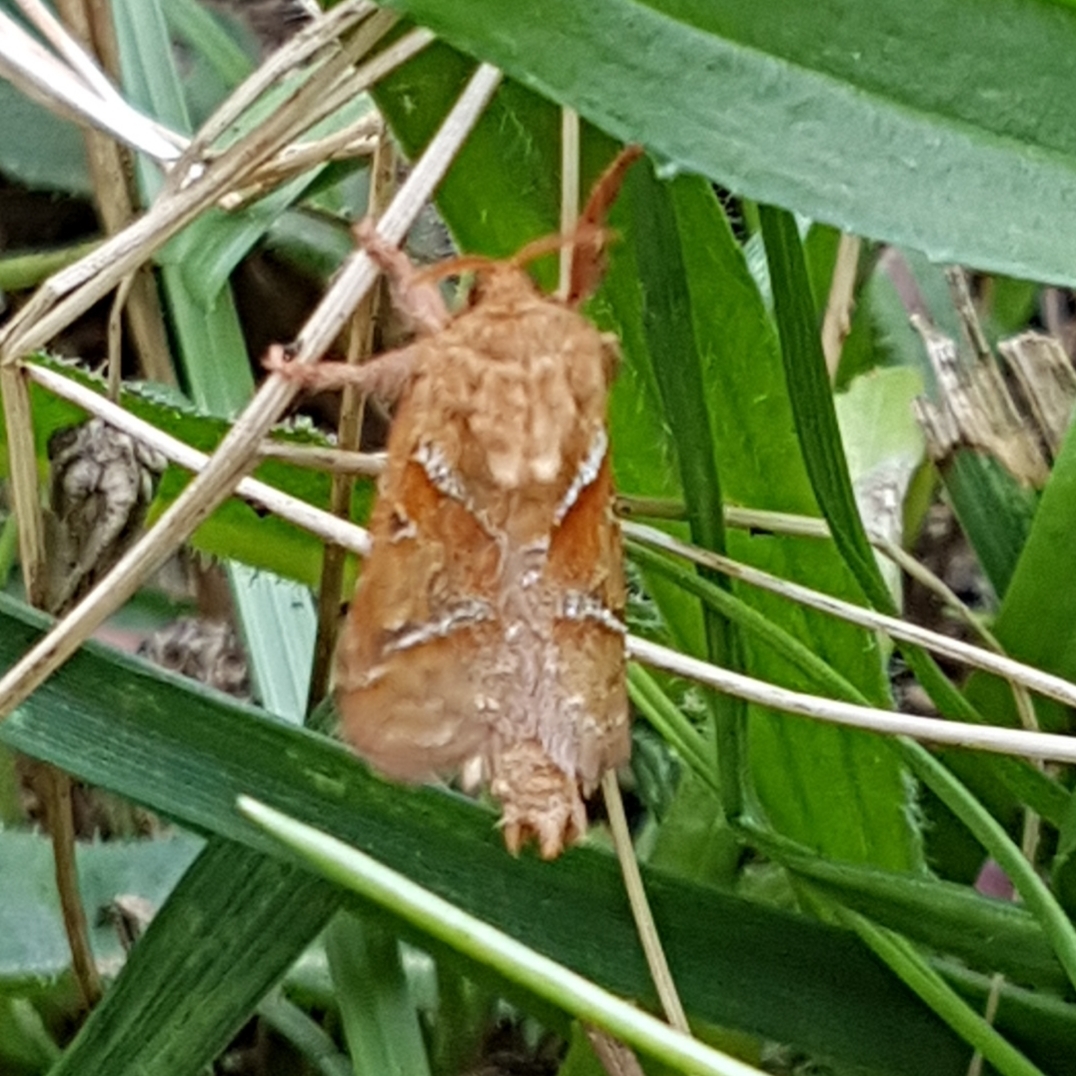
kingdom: Animalia
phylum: Arthropoda
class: Insecta
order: Lepidoptera
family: Hepialidae
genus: Triodia
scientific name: Triodia sylvina
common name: Orange swift
